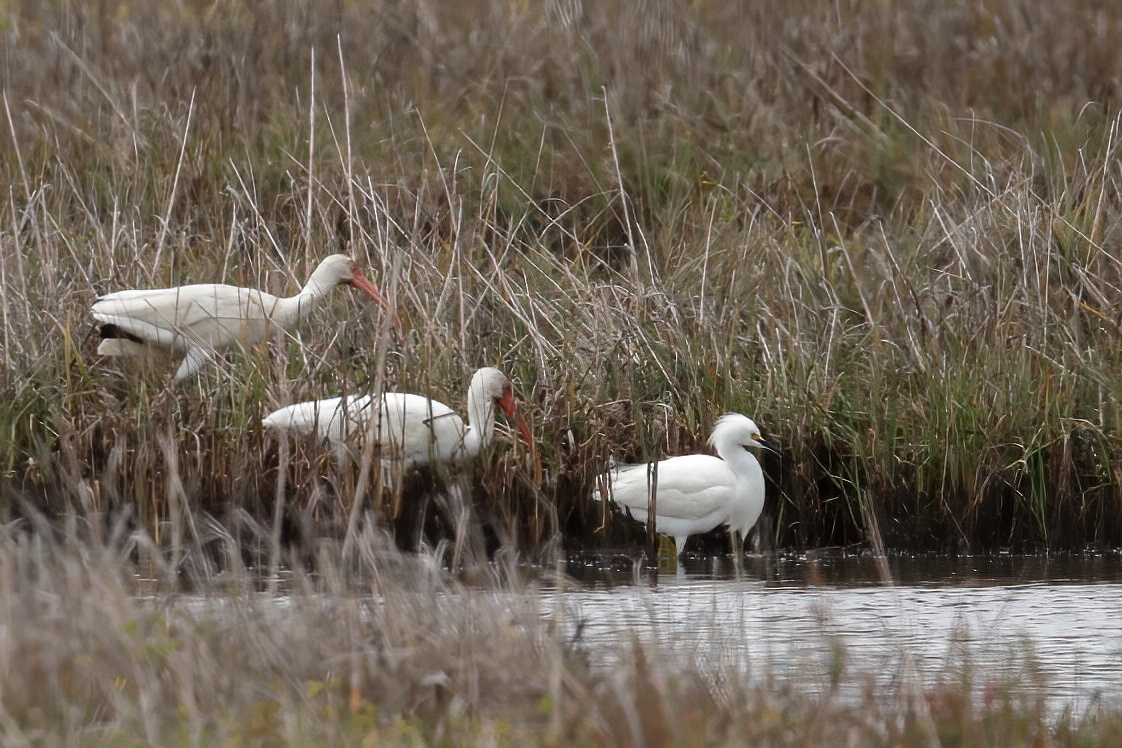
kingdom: Animalia
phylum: Chordata
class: Aves
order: Pelecaniformes
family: Threskiornithidae
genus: Eudocimus
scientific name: Eudocimus albus
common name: White ibis
